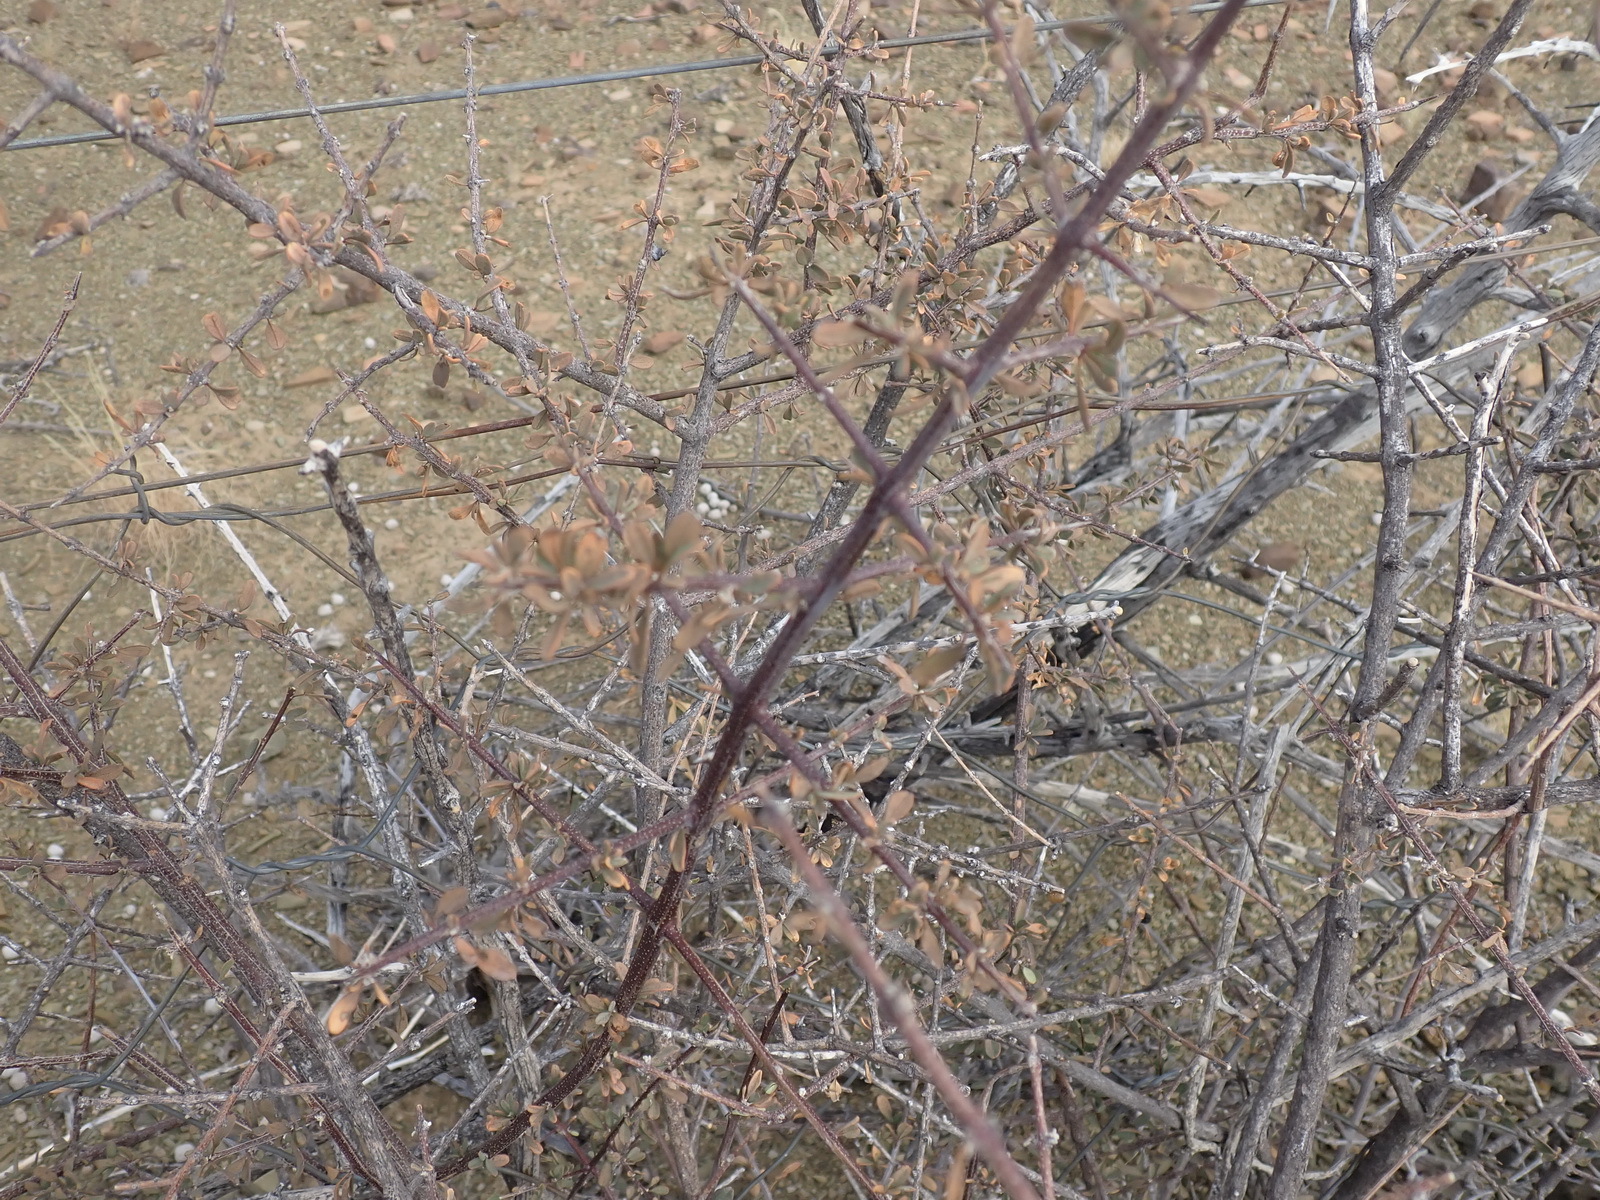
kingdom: Plantae
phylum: Tracheophyta
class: Magnoliopsida
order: Lamiales
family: Bignoniaceae
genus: Rhigozum
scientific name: Rhigozum obovatum
